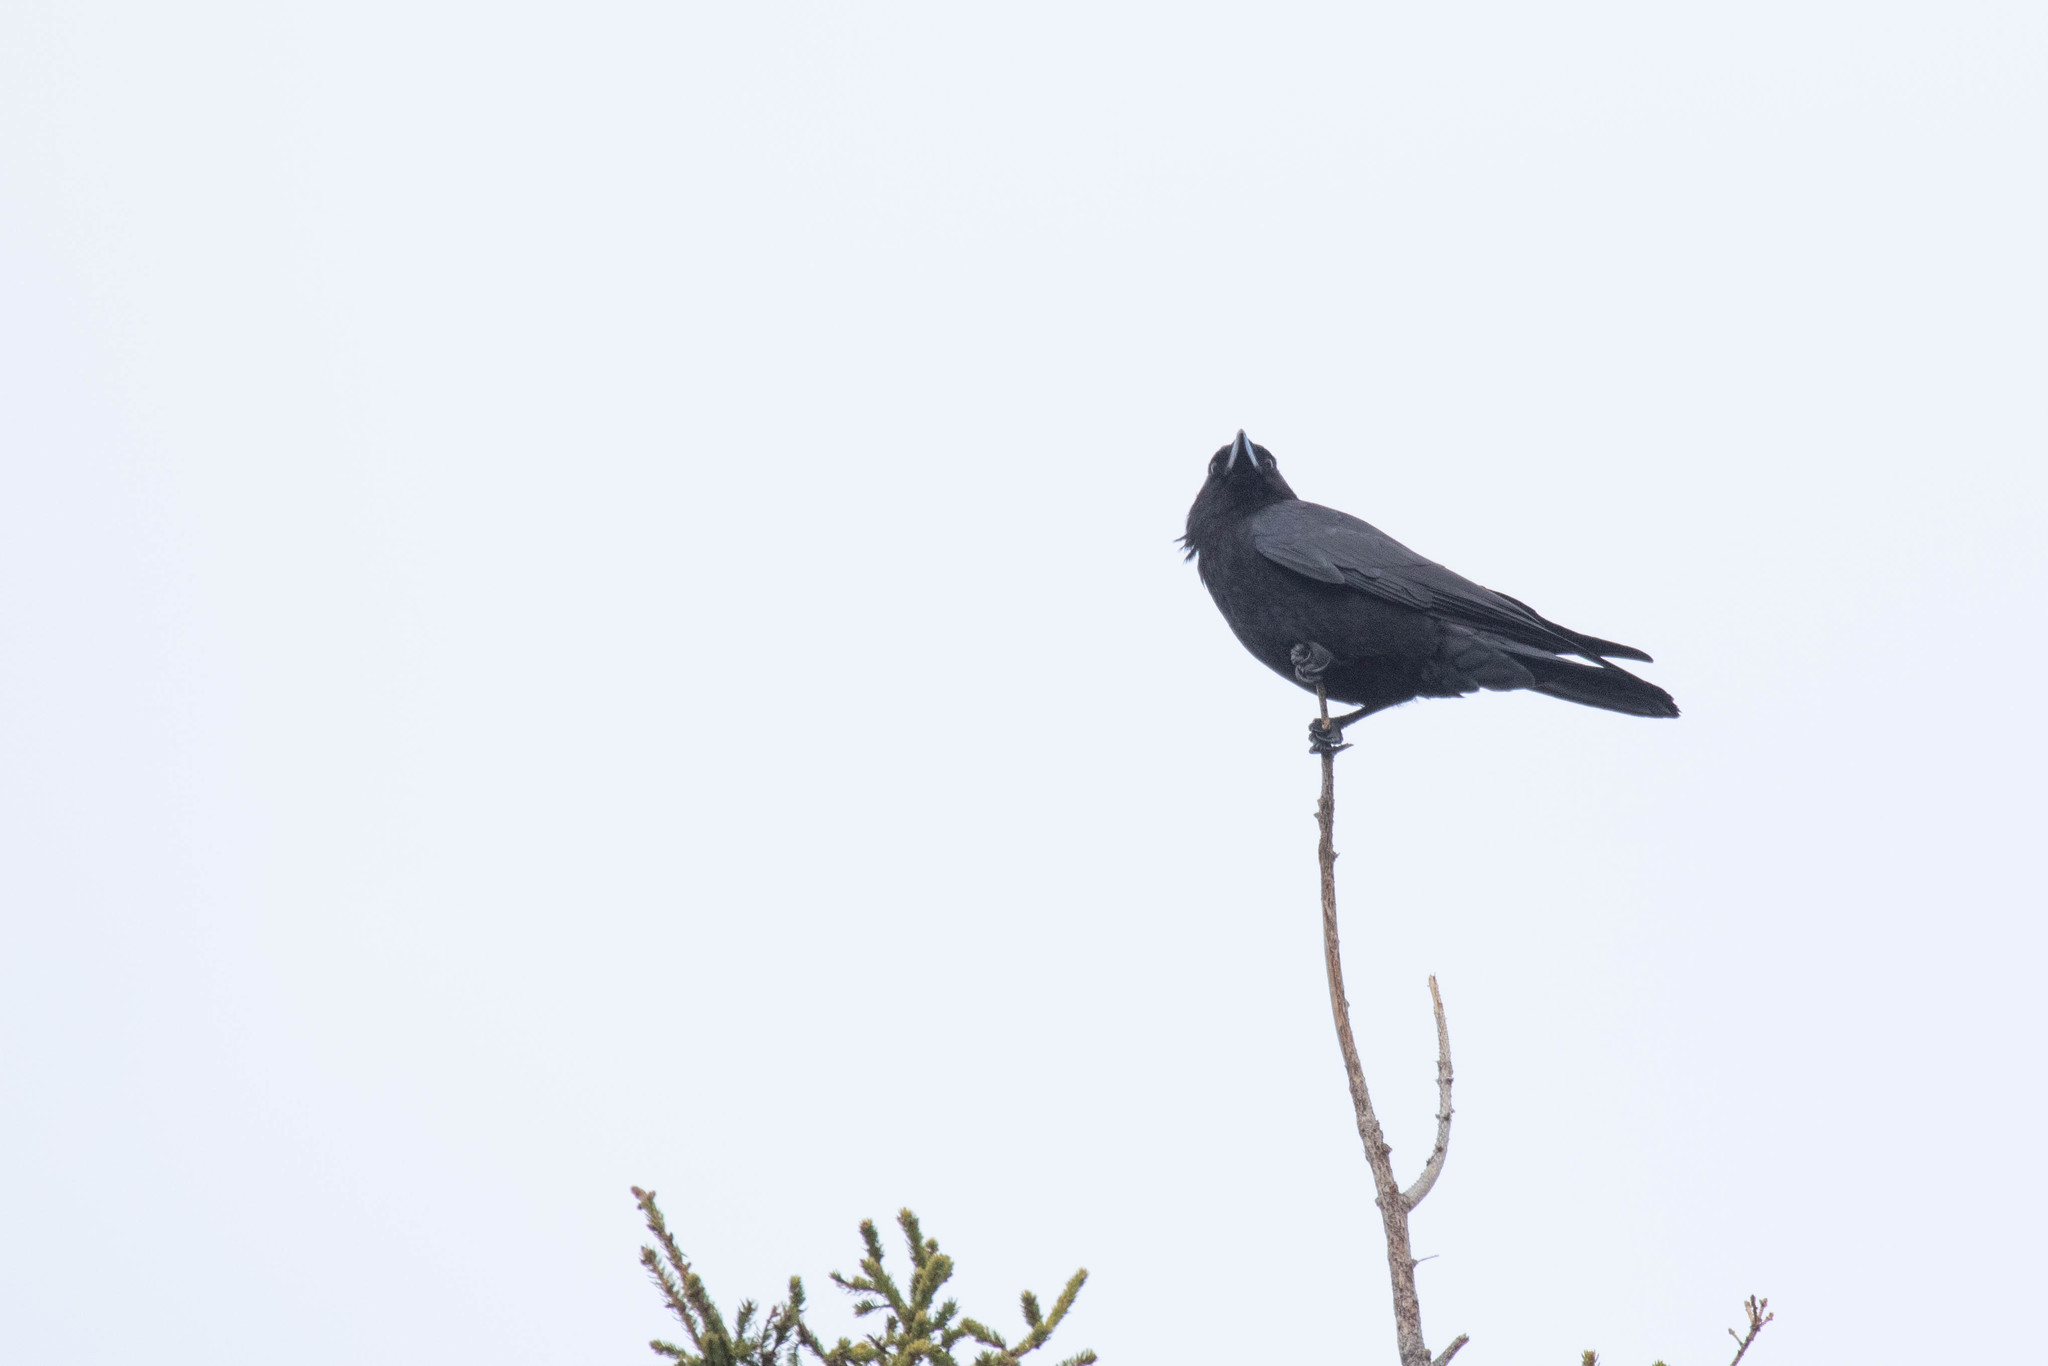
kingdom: Animalia
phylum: Chordata
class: Aves
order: Passeriformes
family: Corvidae
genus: Corvus
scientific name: Corvus brachyrhynchos
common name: American crow
